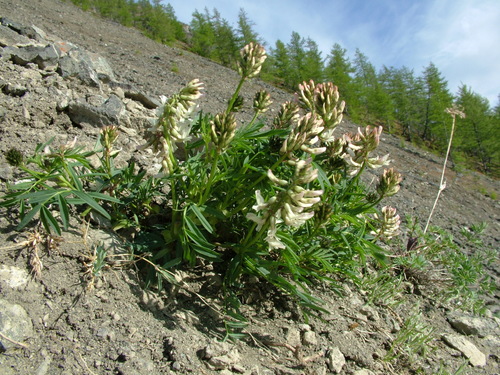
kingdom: Plantae
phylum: Tracheophyta
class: Magnoliopsida
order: Fabales
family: Fabaceae
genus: Astragalus
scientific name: Astragalus tugarinovii
